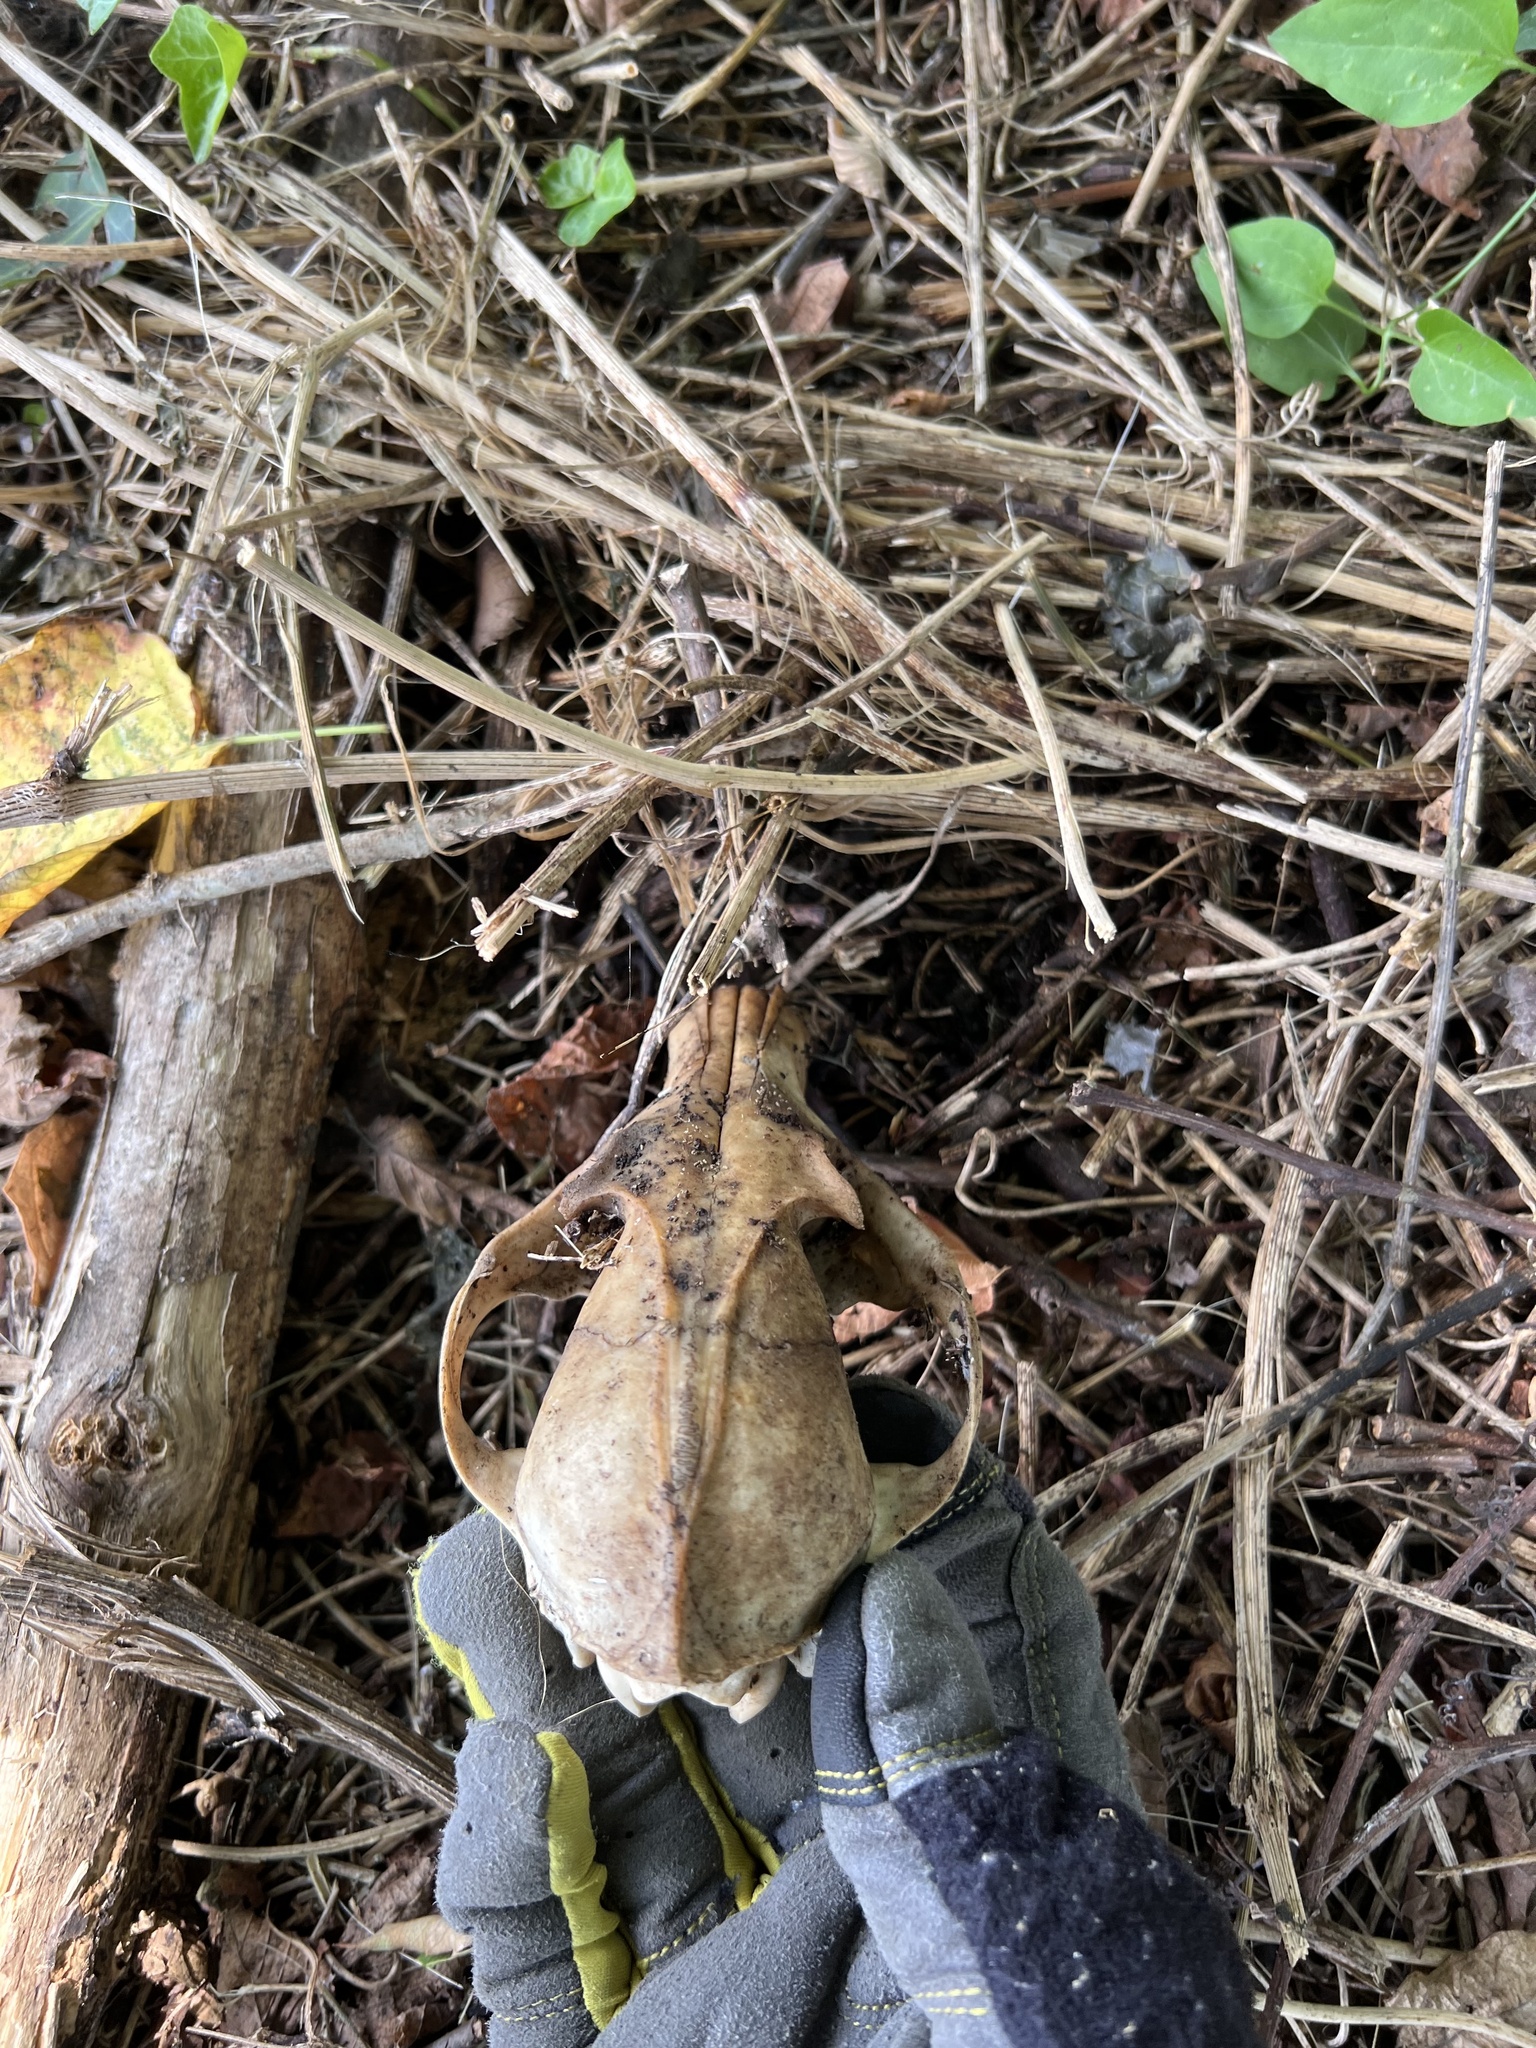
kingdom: Animalia
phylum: Chordata
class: Mammalia
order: Carnivora
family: Canidae
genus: Vulpes
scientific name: Vulpes vulpes
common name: Red fox
